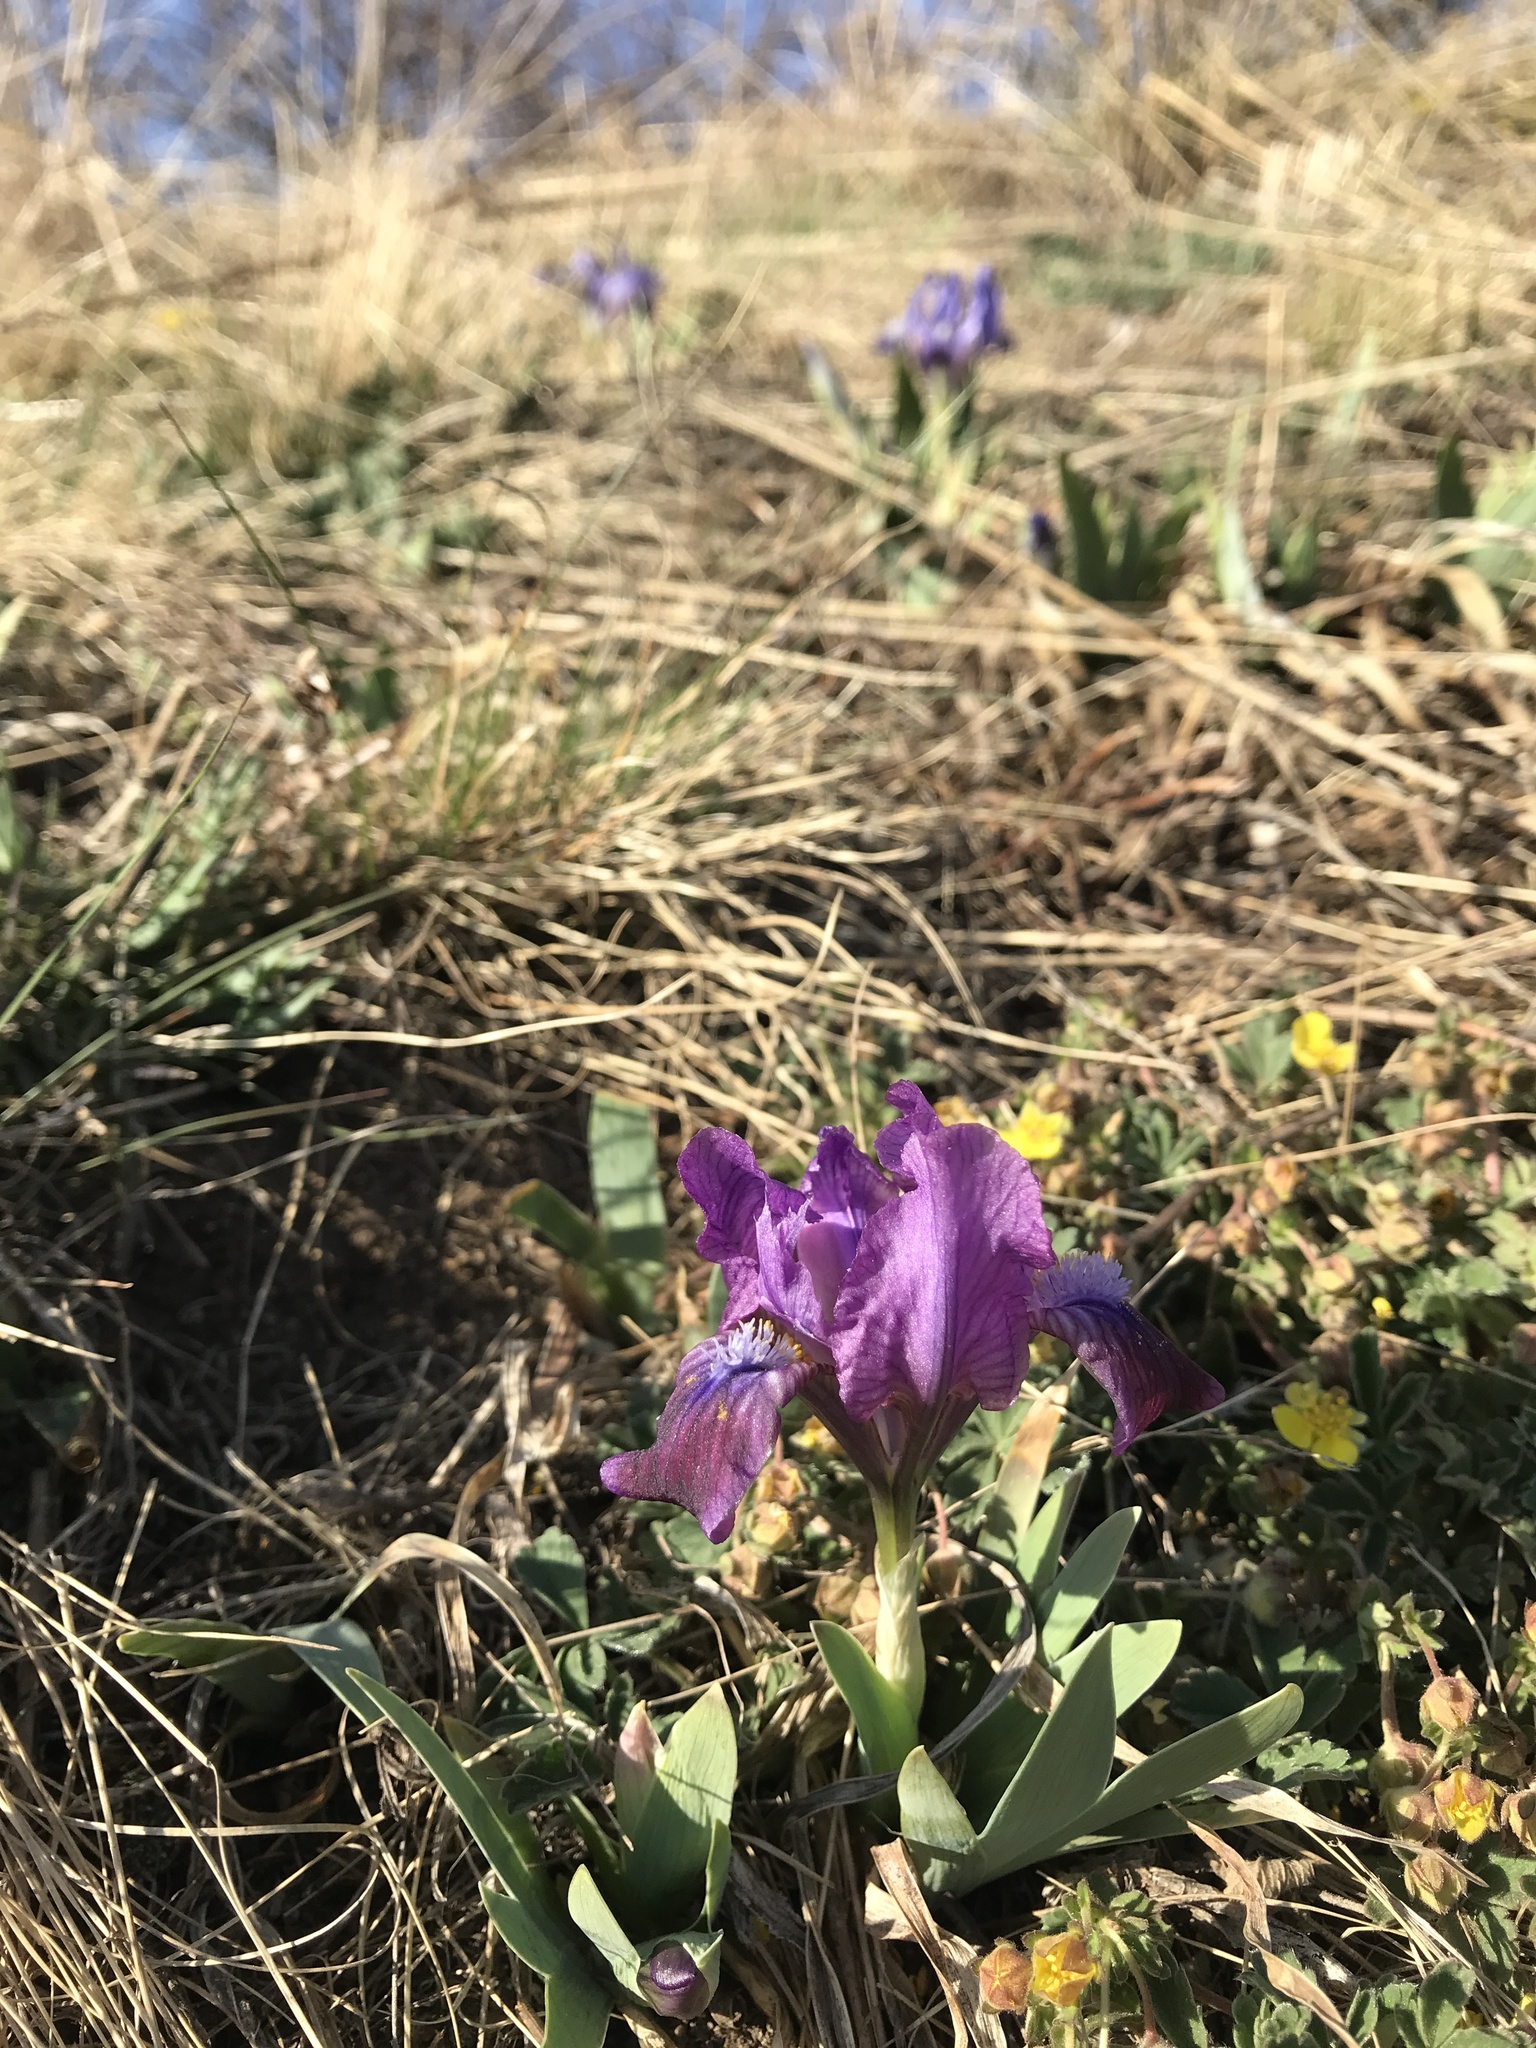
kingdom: Plantae
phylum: Tracheophyta
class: Liliopsida
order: Asparagales
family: Iridaceae
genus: Iris
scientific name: Iris pumila
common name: Dwarf iris
